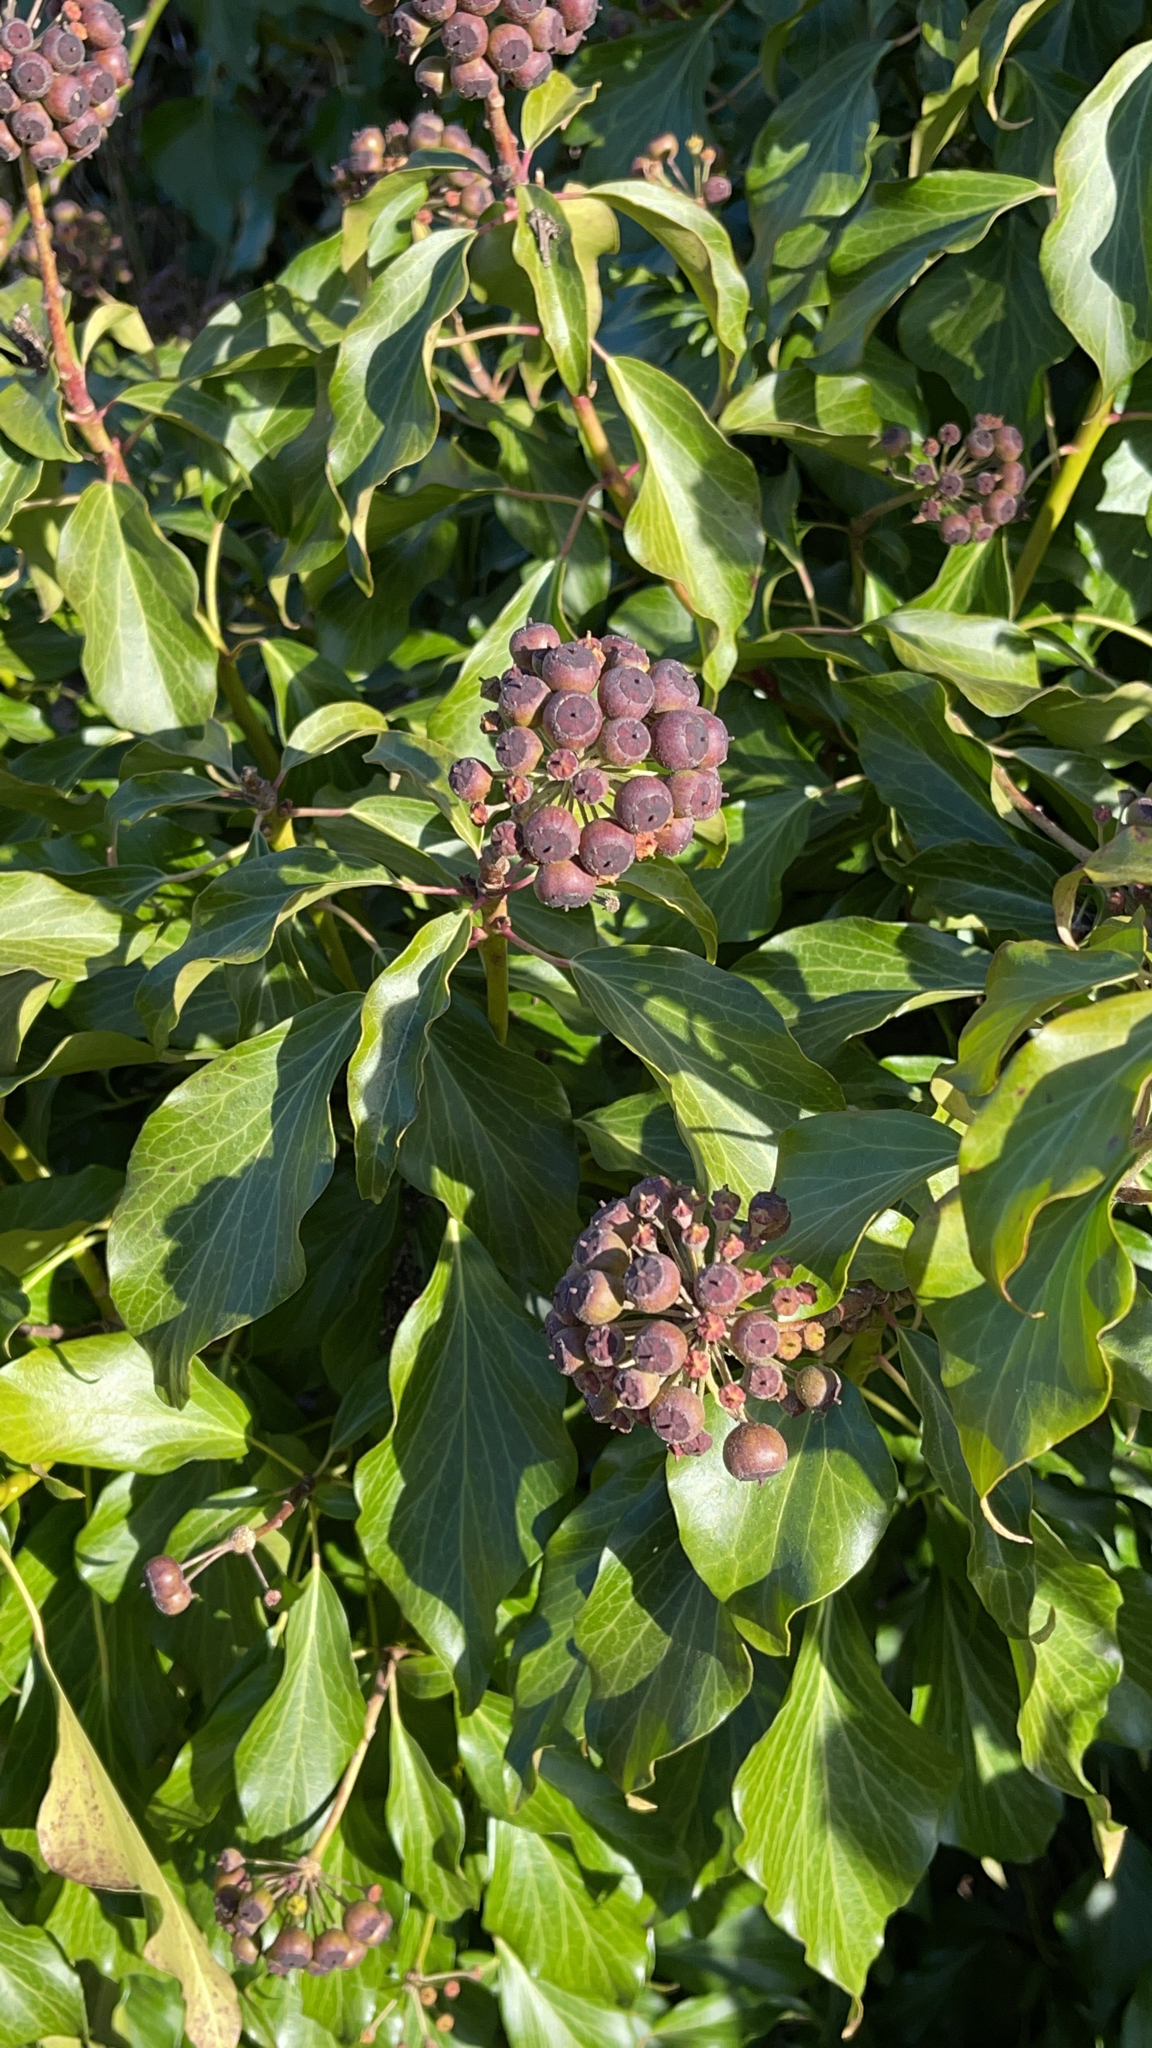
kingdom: Plantae
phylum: Tracheophyta
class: Magnoliopsida
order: Apiales
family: Araliaceae
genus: Hedera
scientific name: Hedera helix
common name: Ivy
